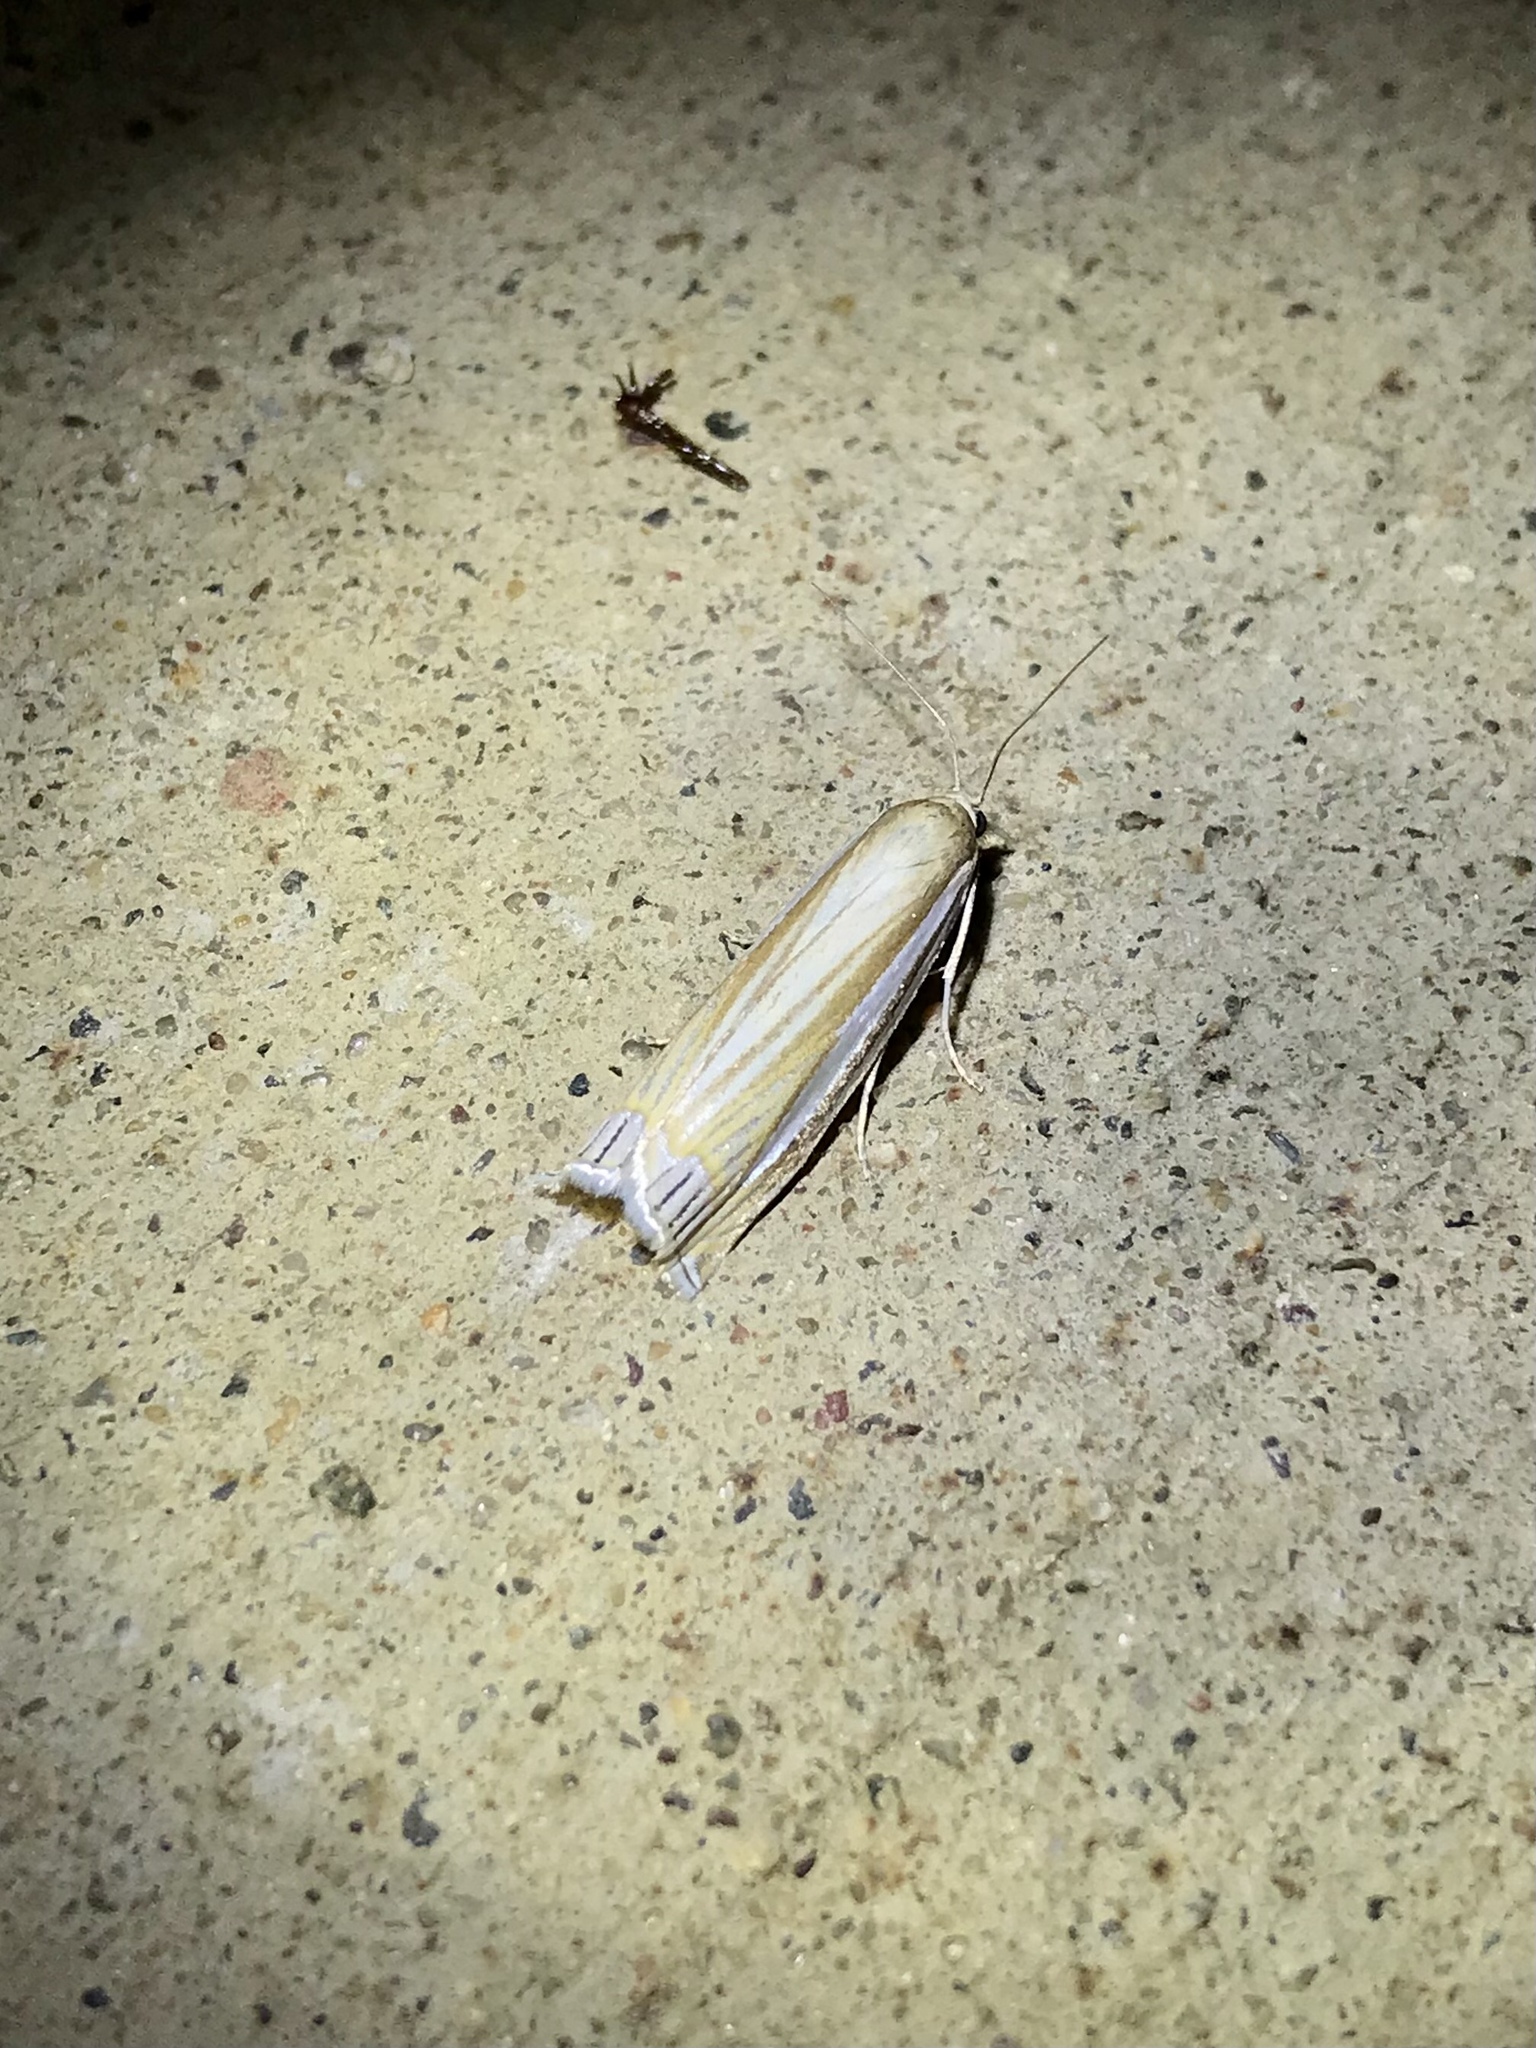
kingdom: Animalia
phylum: Arthropoda
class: Insecta
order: Lepidoptera
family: Crambidae
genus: Crambus
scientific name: Crambus laqueatellus
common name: Eastern grass-veneer
